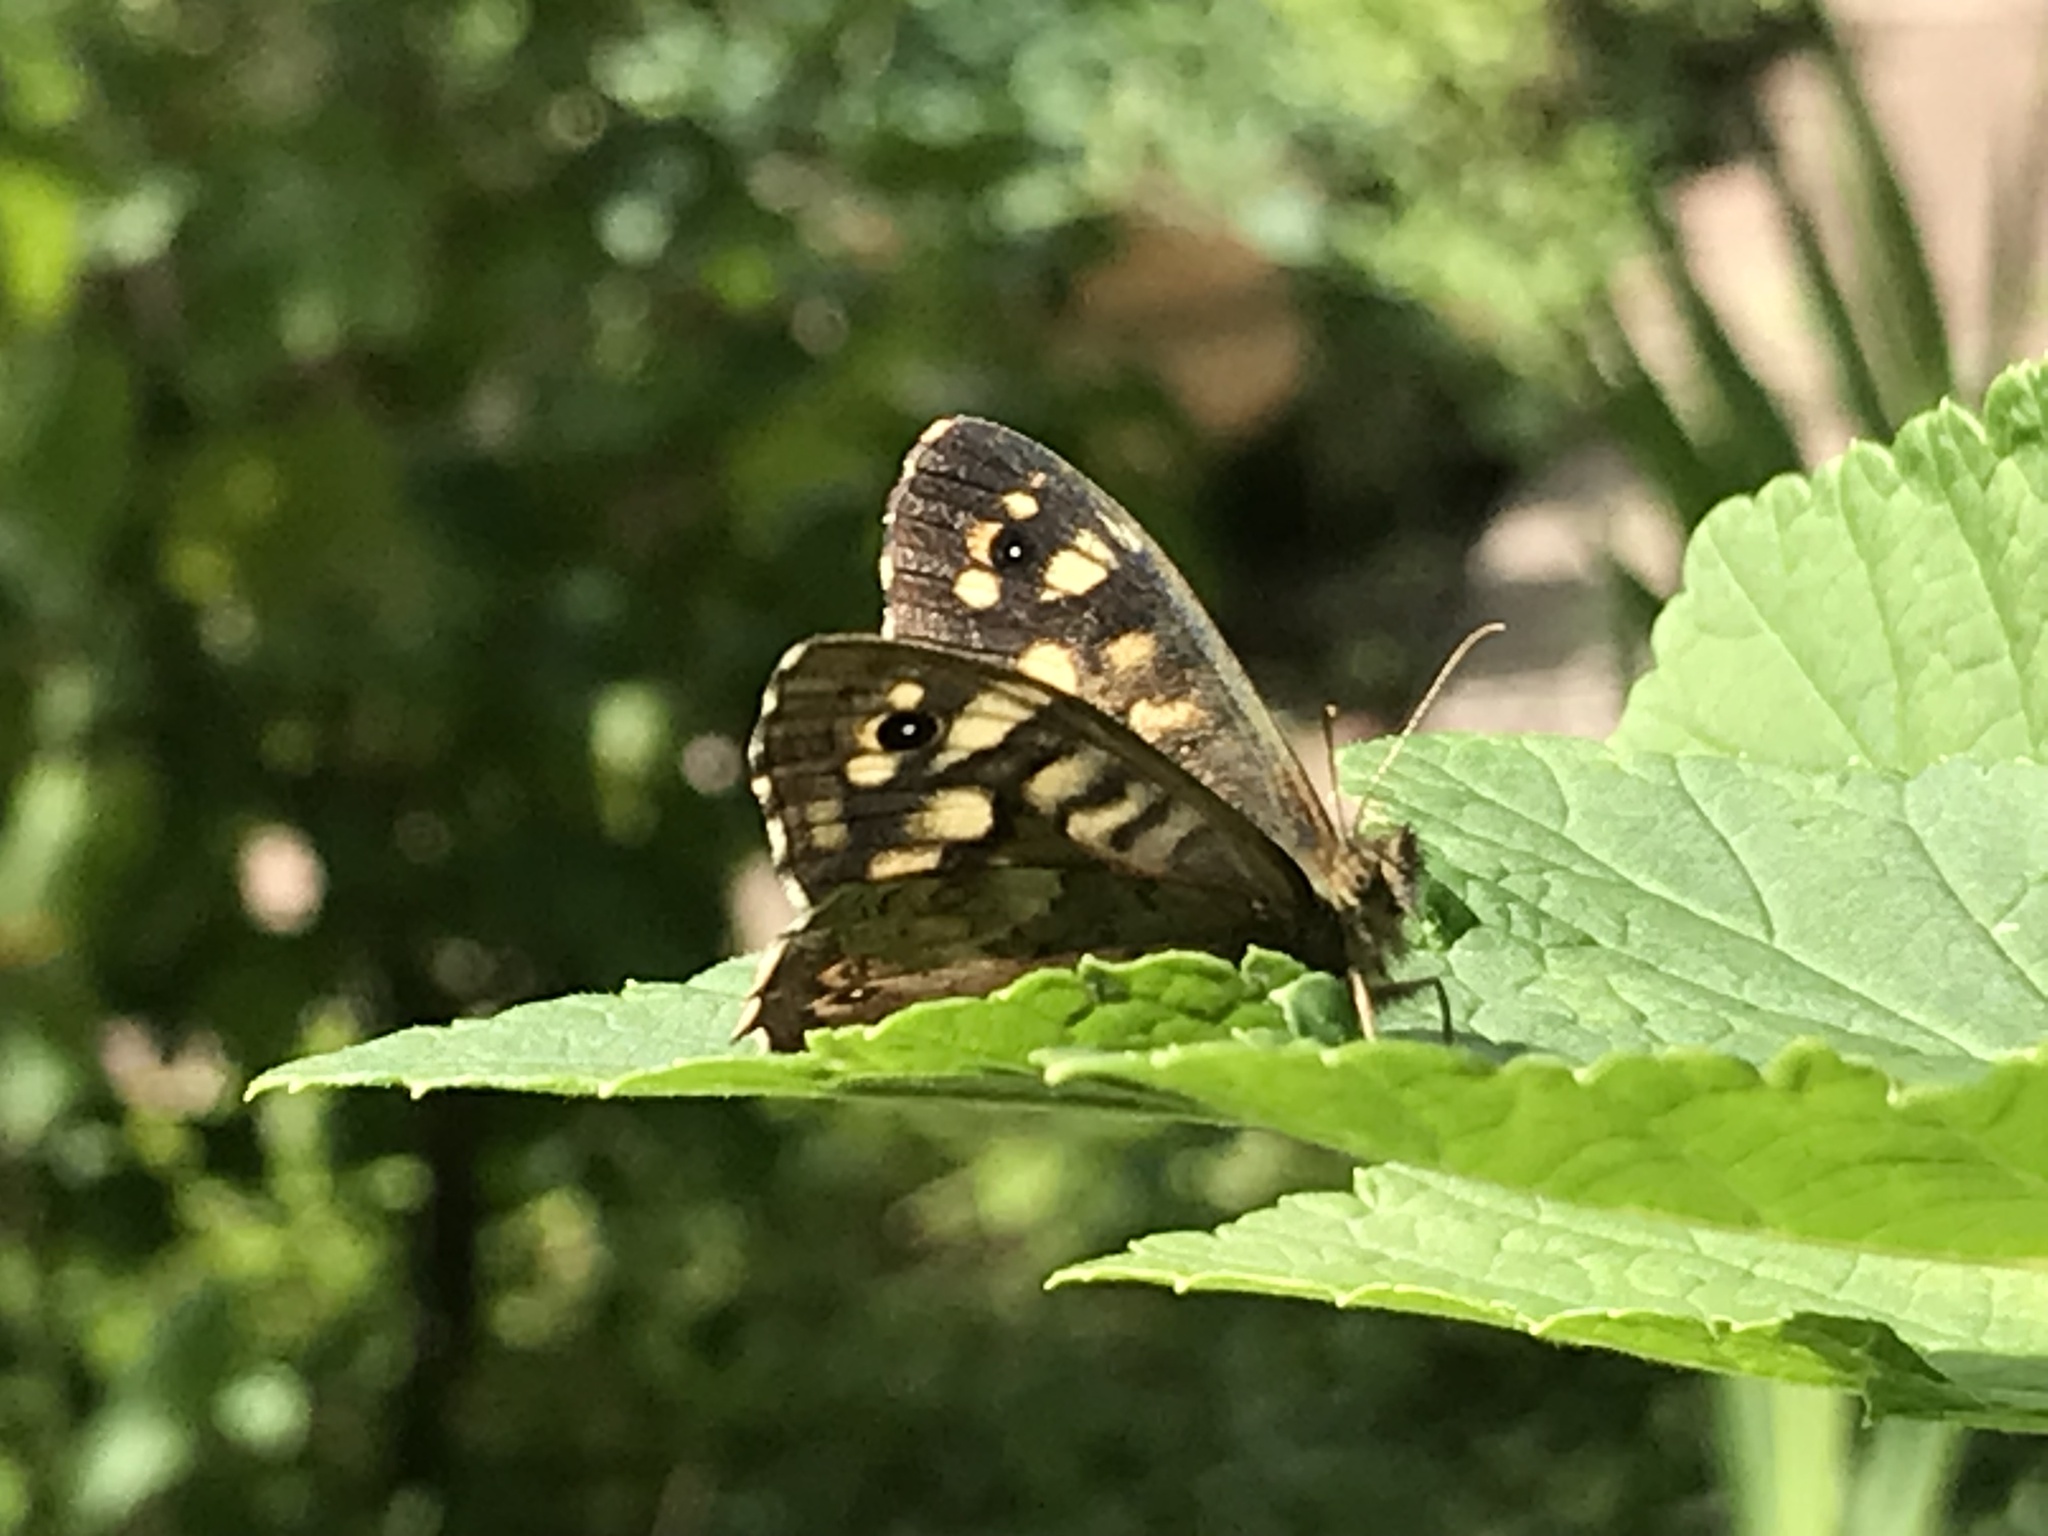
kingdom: Animalia
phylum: Arthropoda
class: Insecta
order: Lepidoptera
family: Nymphalidae
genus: Pararge
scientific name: Pararge aegeria
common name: Speckled wood
